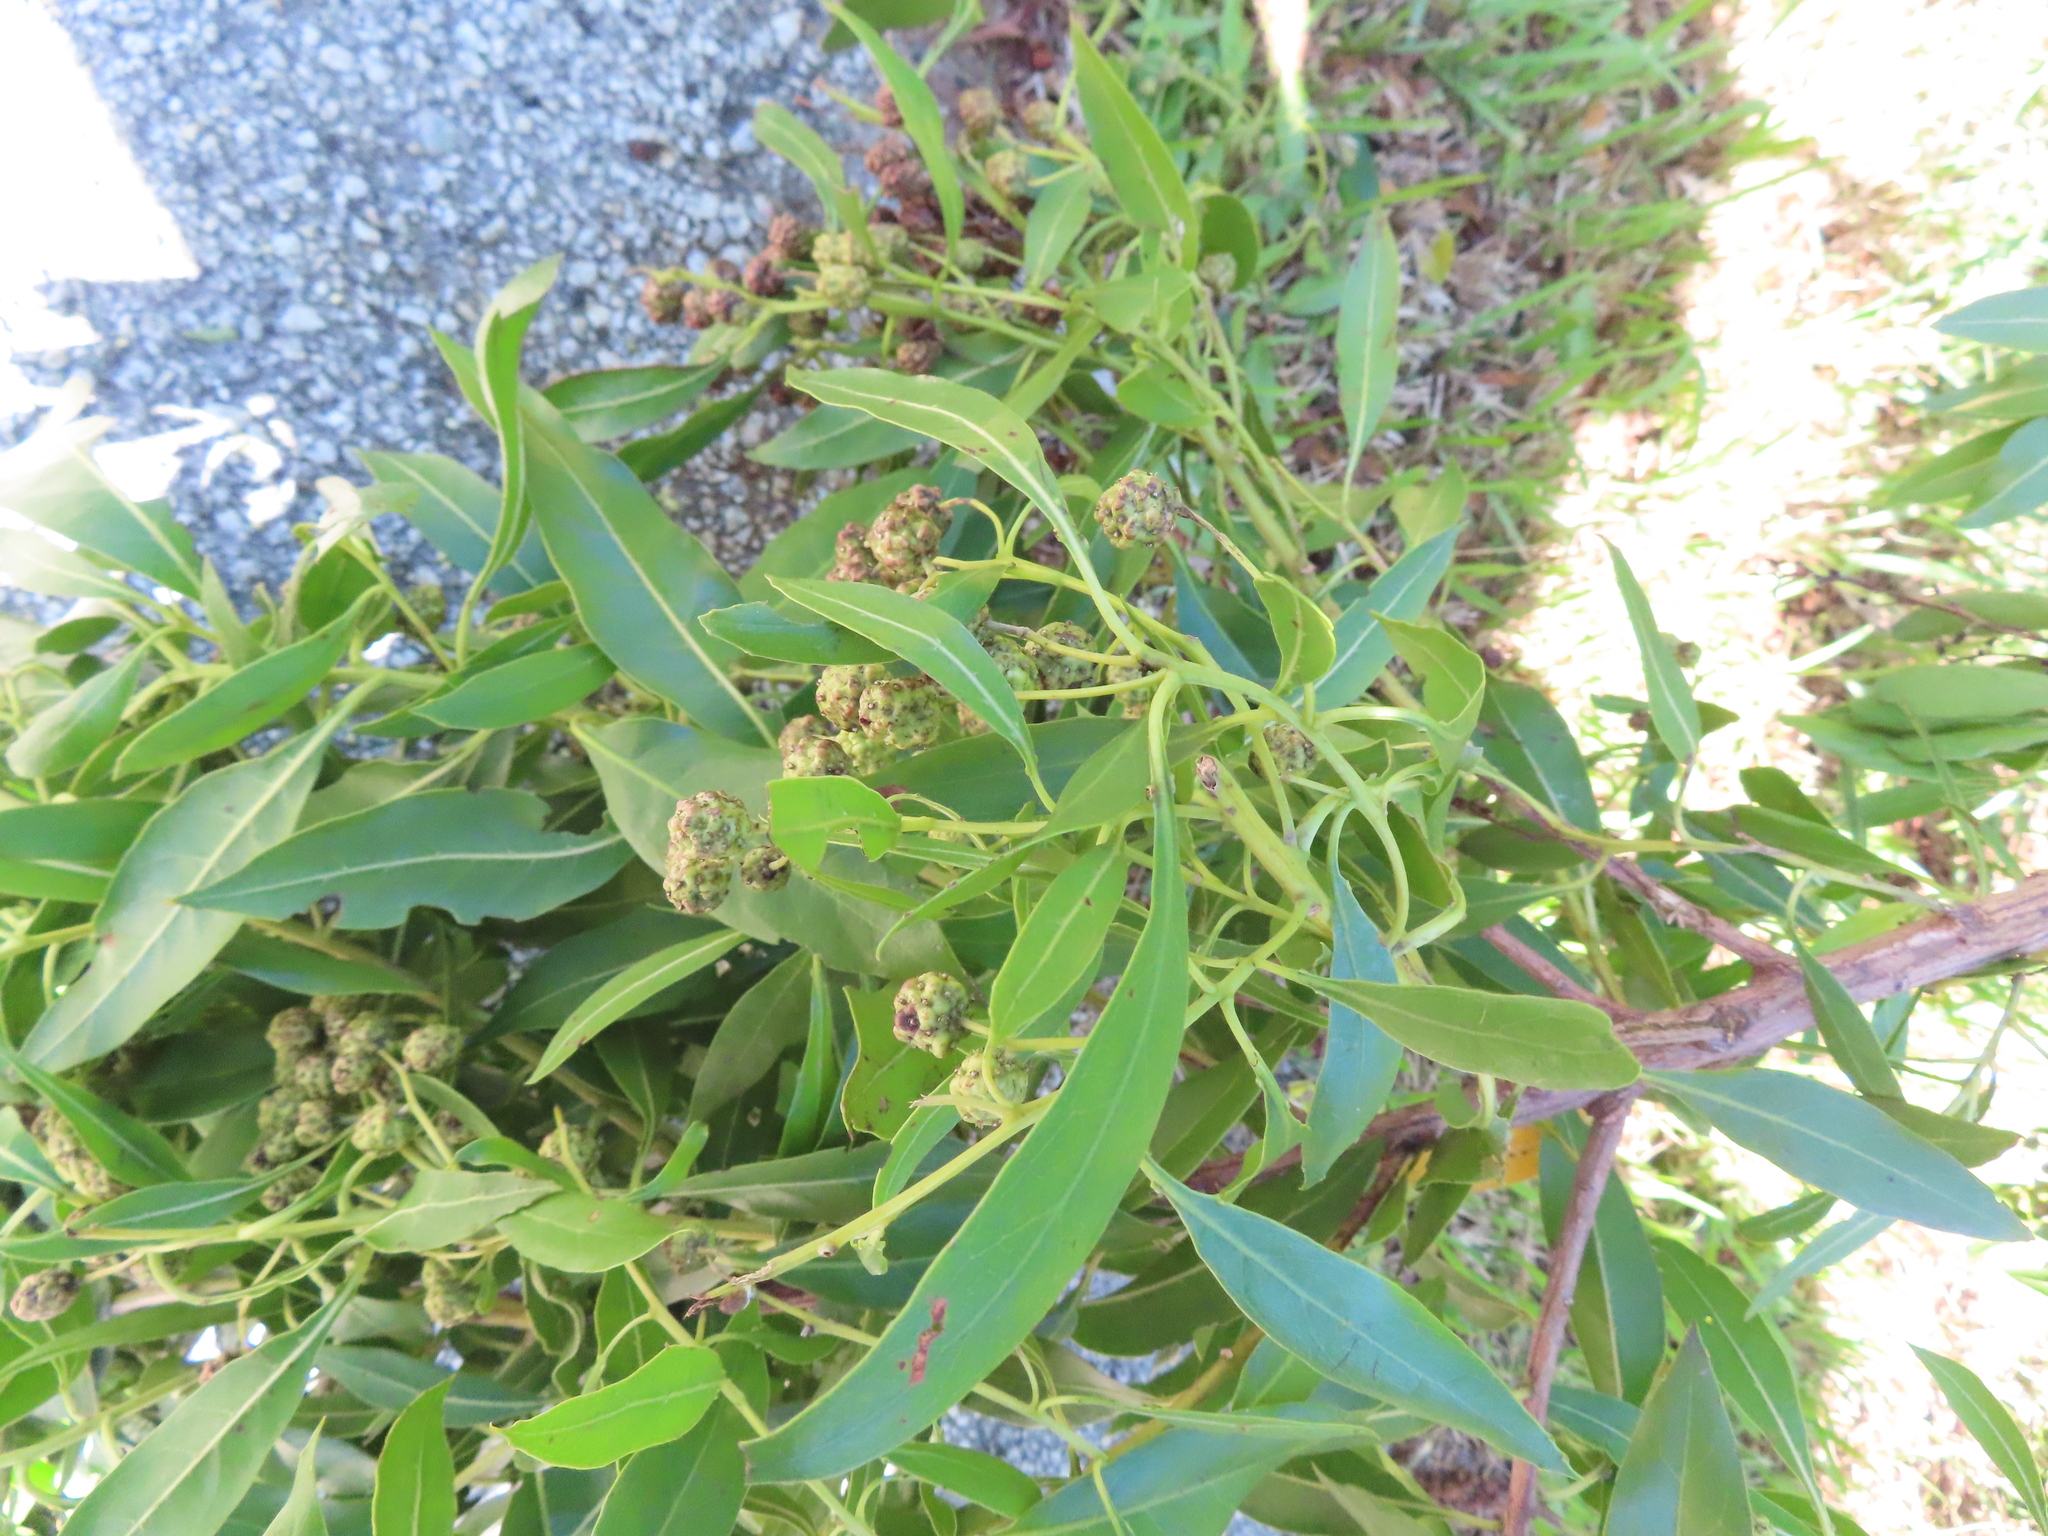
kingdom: Plantae
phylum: Tracheophyta
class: Magnoliopsida
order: Myrtales
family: Combretaceae
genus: Conocarpus
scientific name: Conocarpus erectus
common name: Button mangrove
